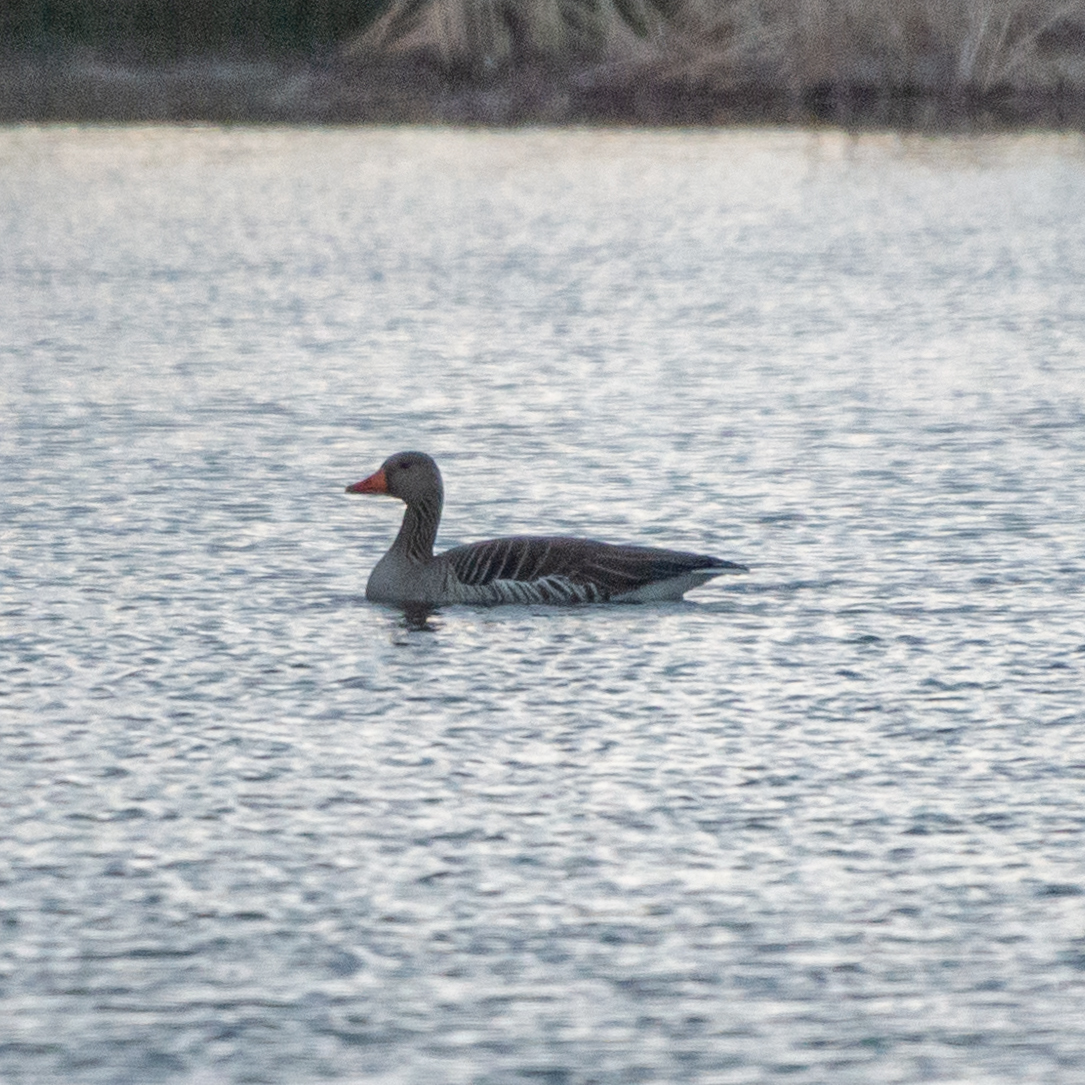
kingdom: Animalia
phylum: Chordata
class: Aves
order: Anseriformes
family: Anatidae
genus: Anser
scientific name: Anser anser
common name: Greylag goose
